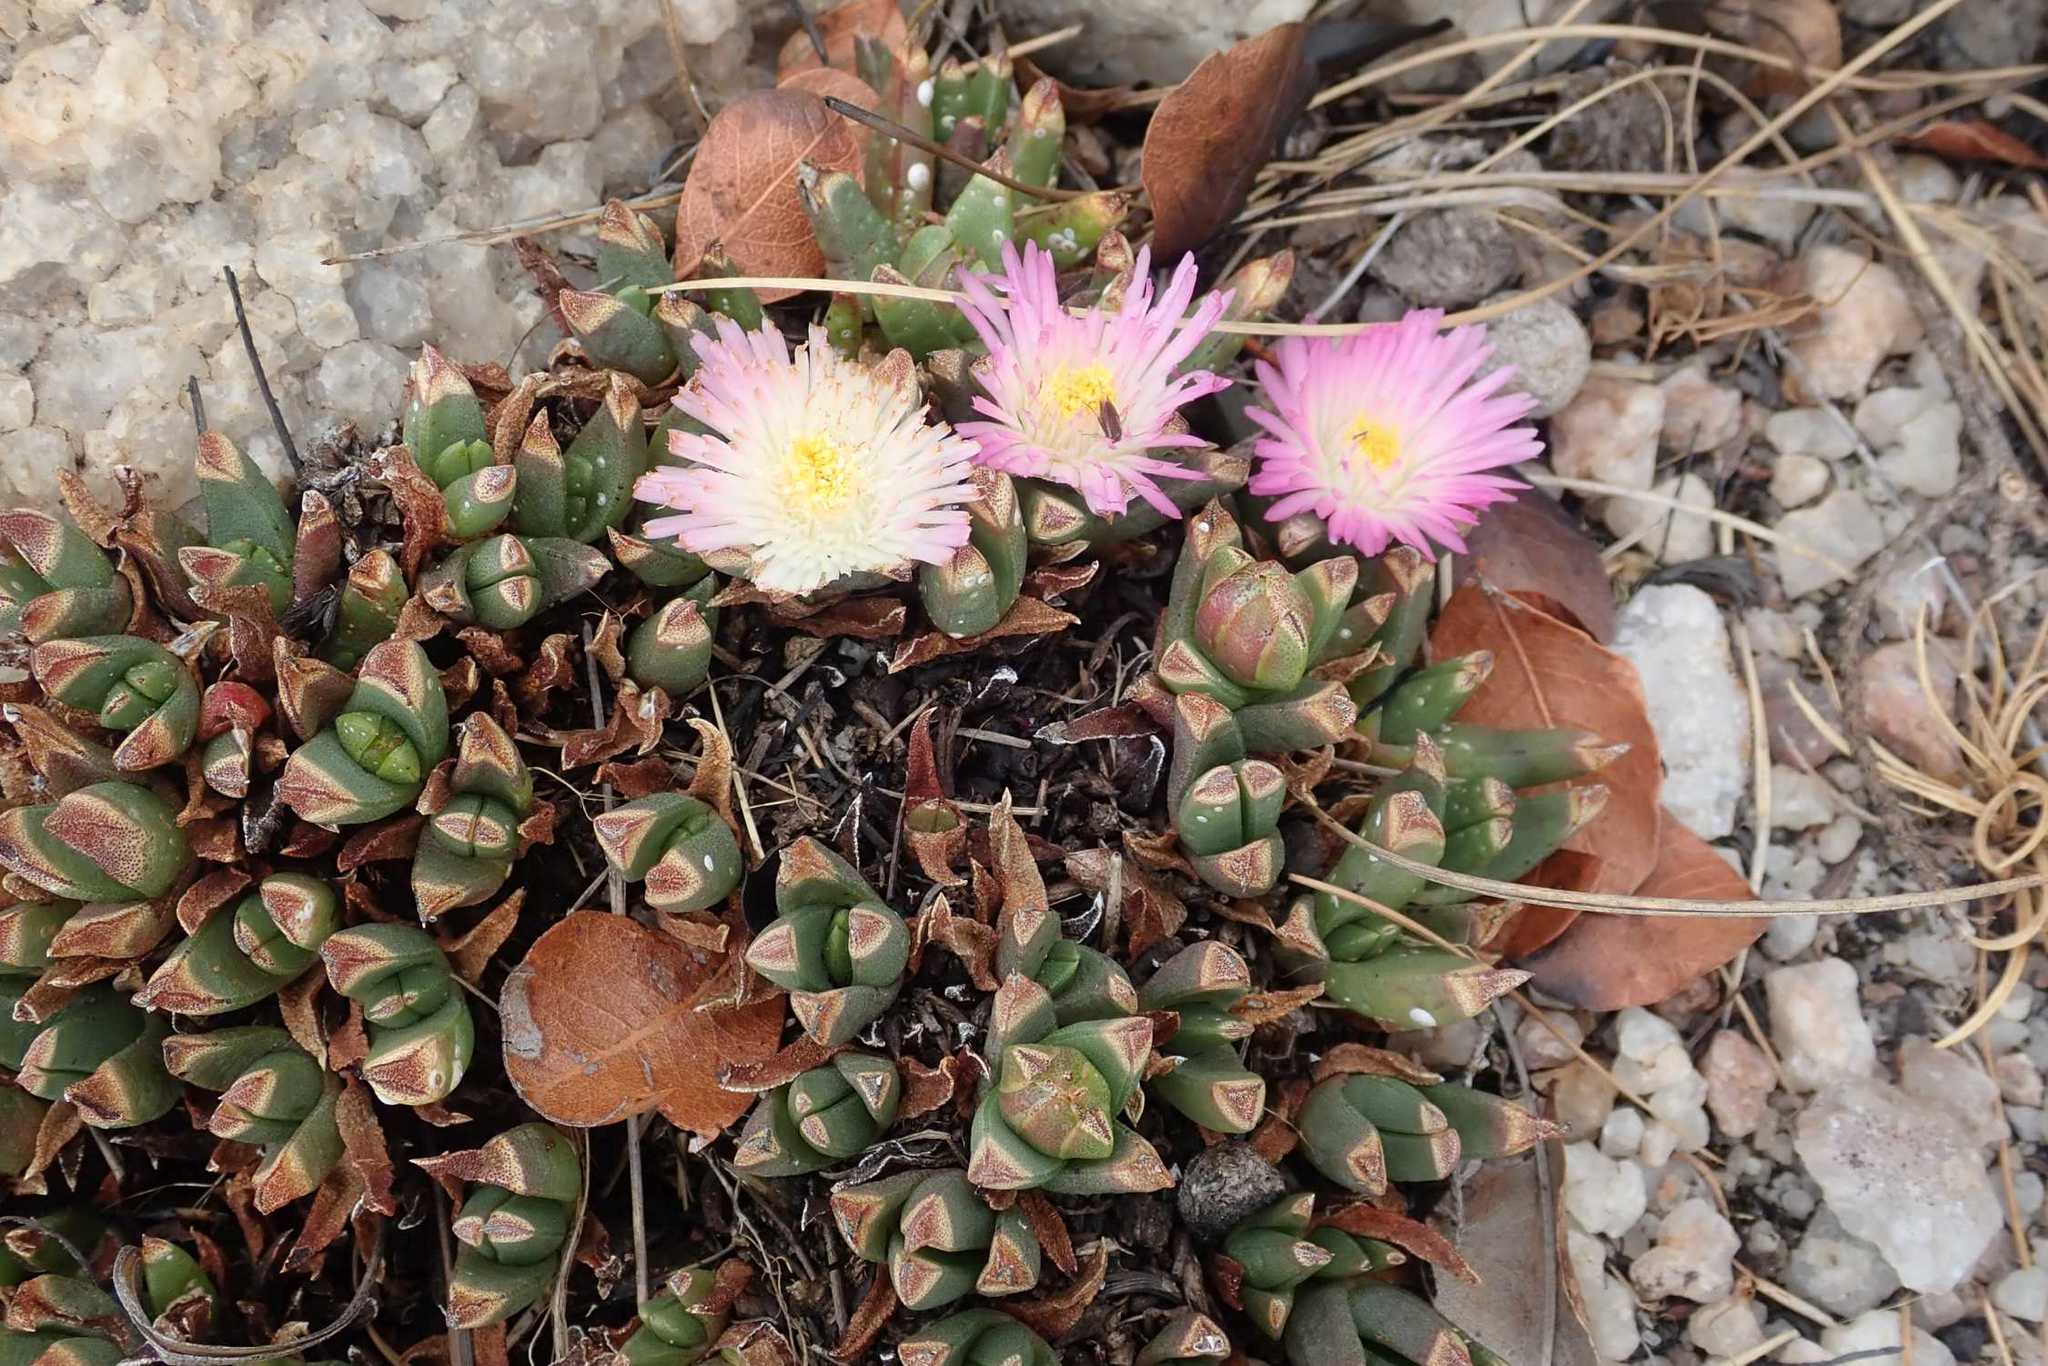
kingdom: Plantae
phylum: Tracheophyta
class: Magnoliopsida
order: Caryophyllales
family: Aizoaceae
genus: Khadia
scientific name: Khadia alticola
